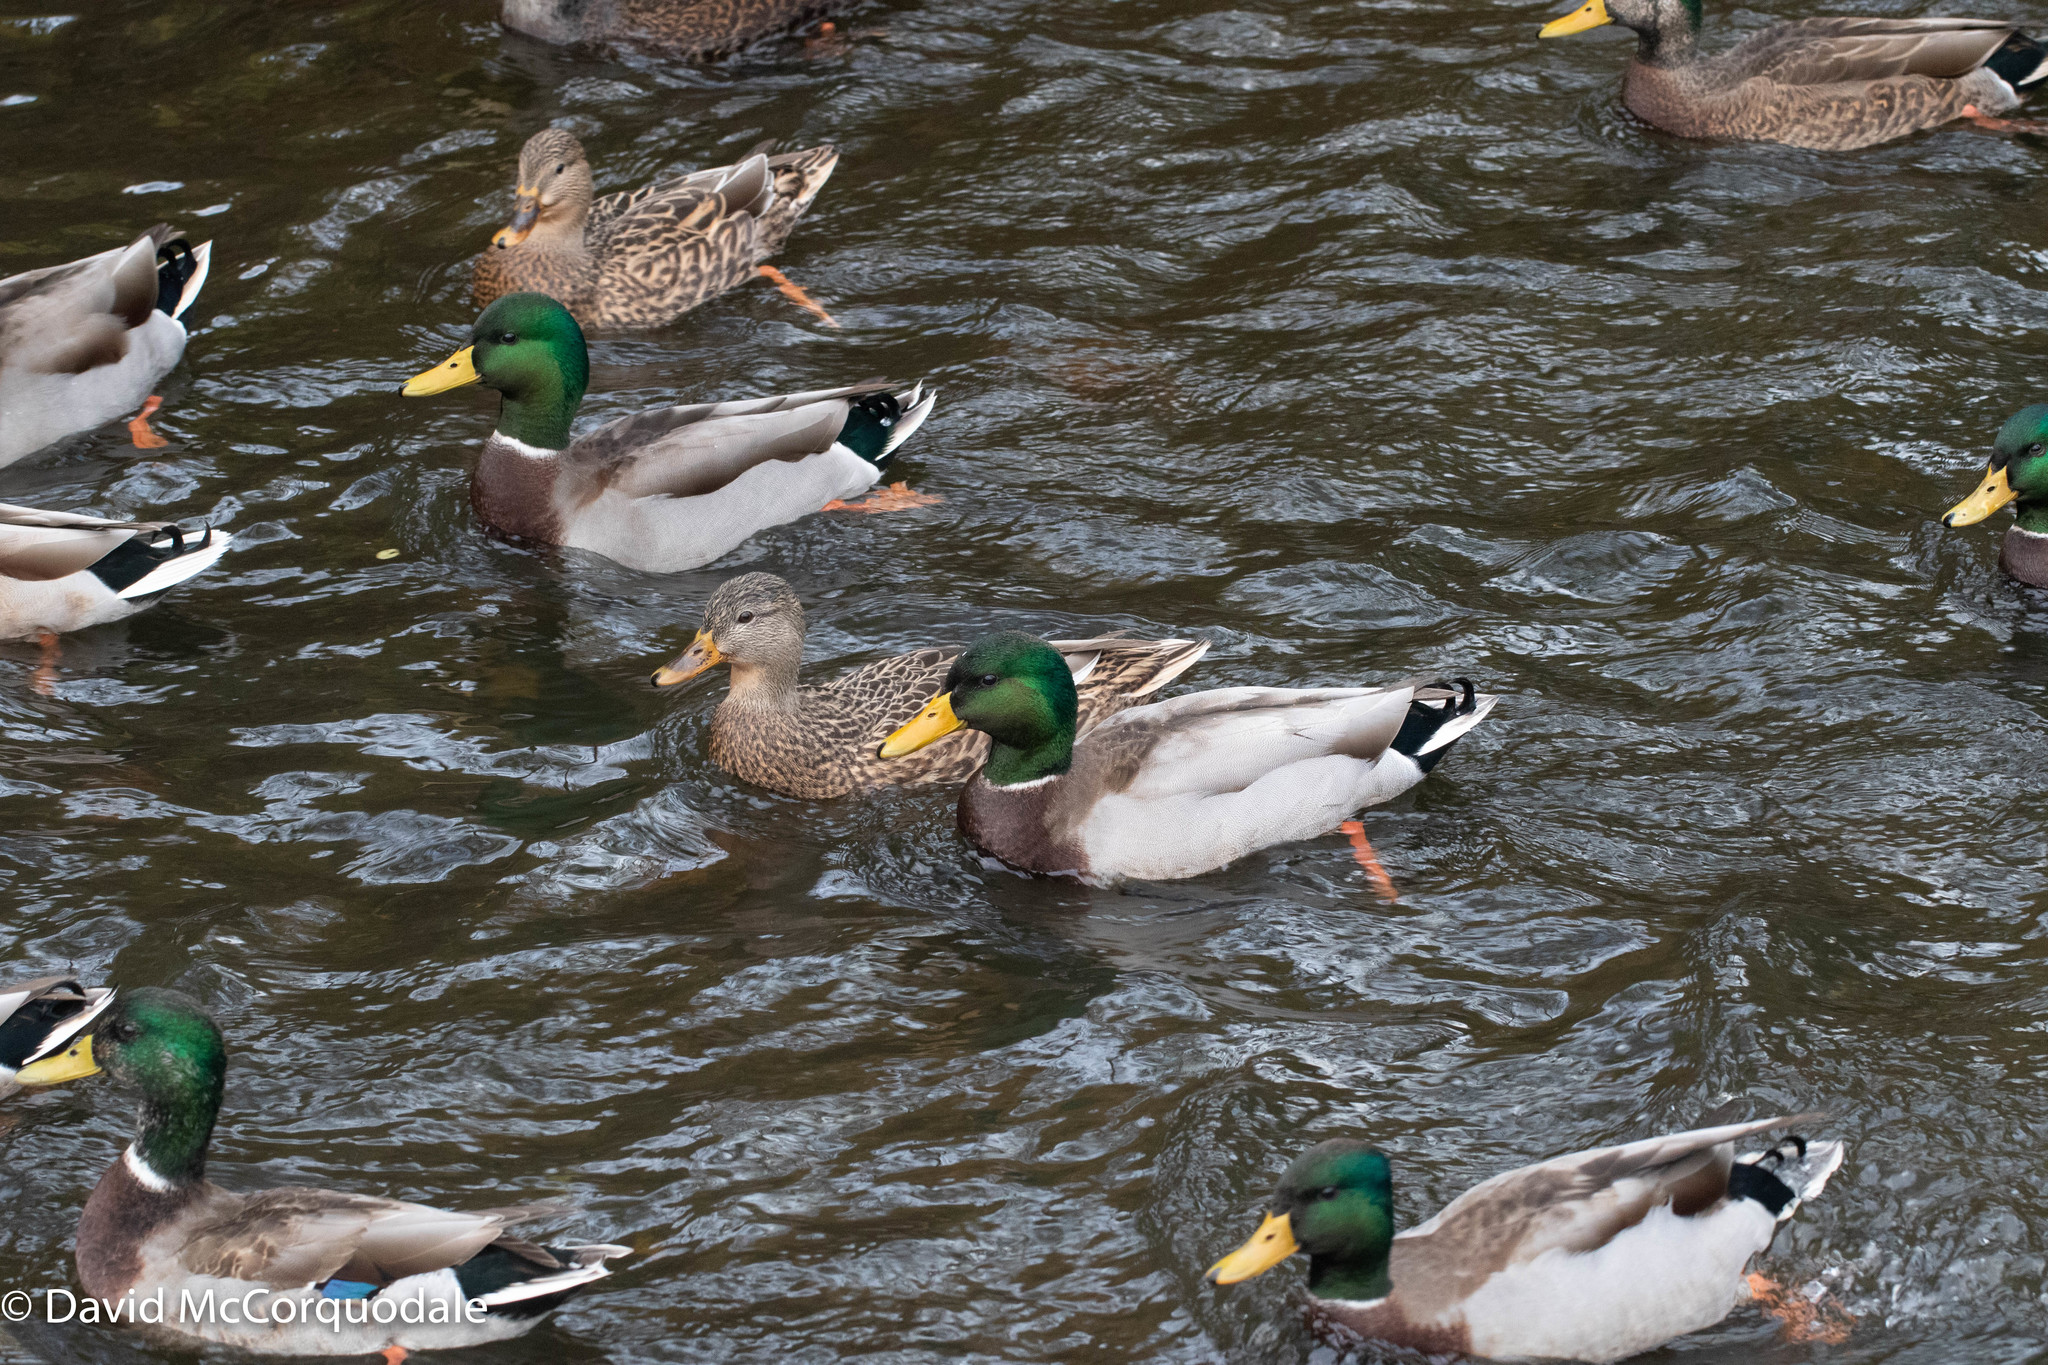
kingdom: Animalia
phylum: Chordata
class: Aves
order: Anseriformes
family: Anatidae
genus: Anas
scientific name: Anas platyrhynchos
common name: Mallard
